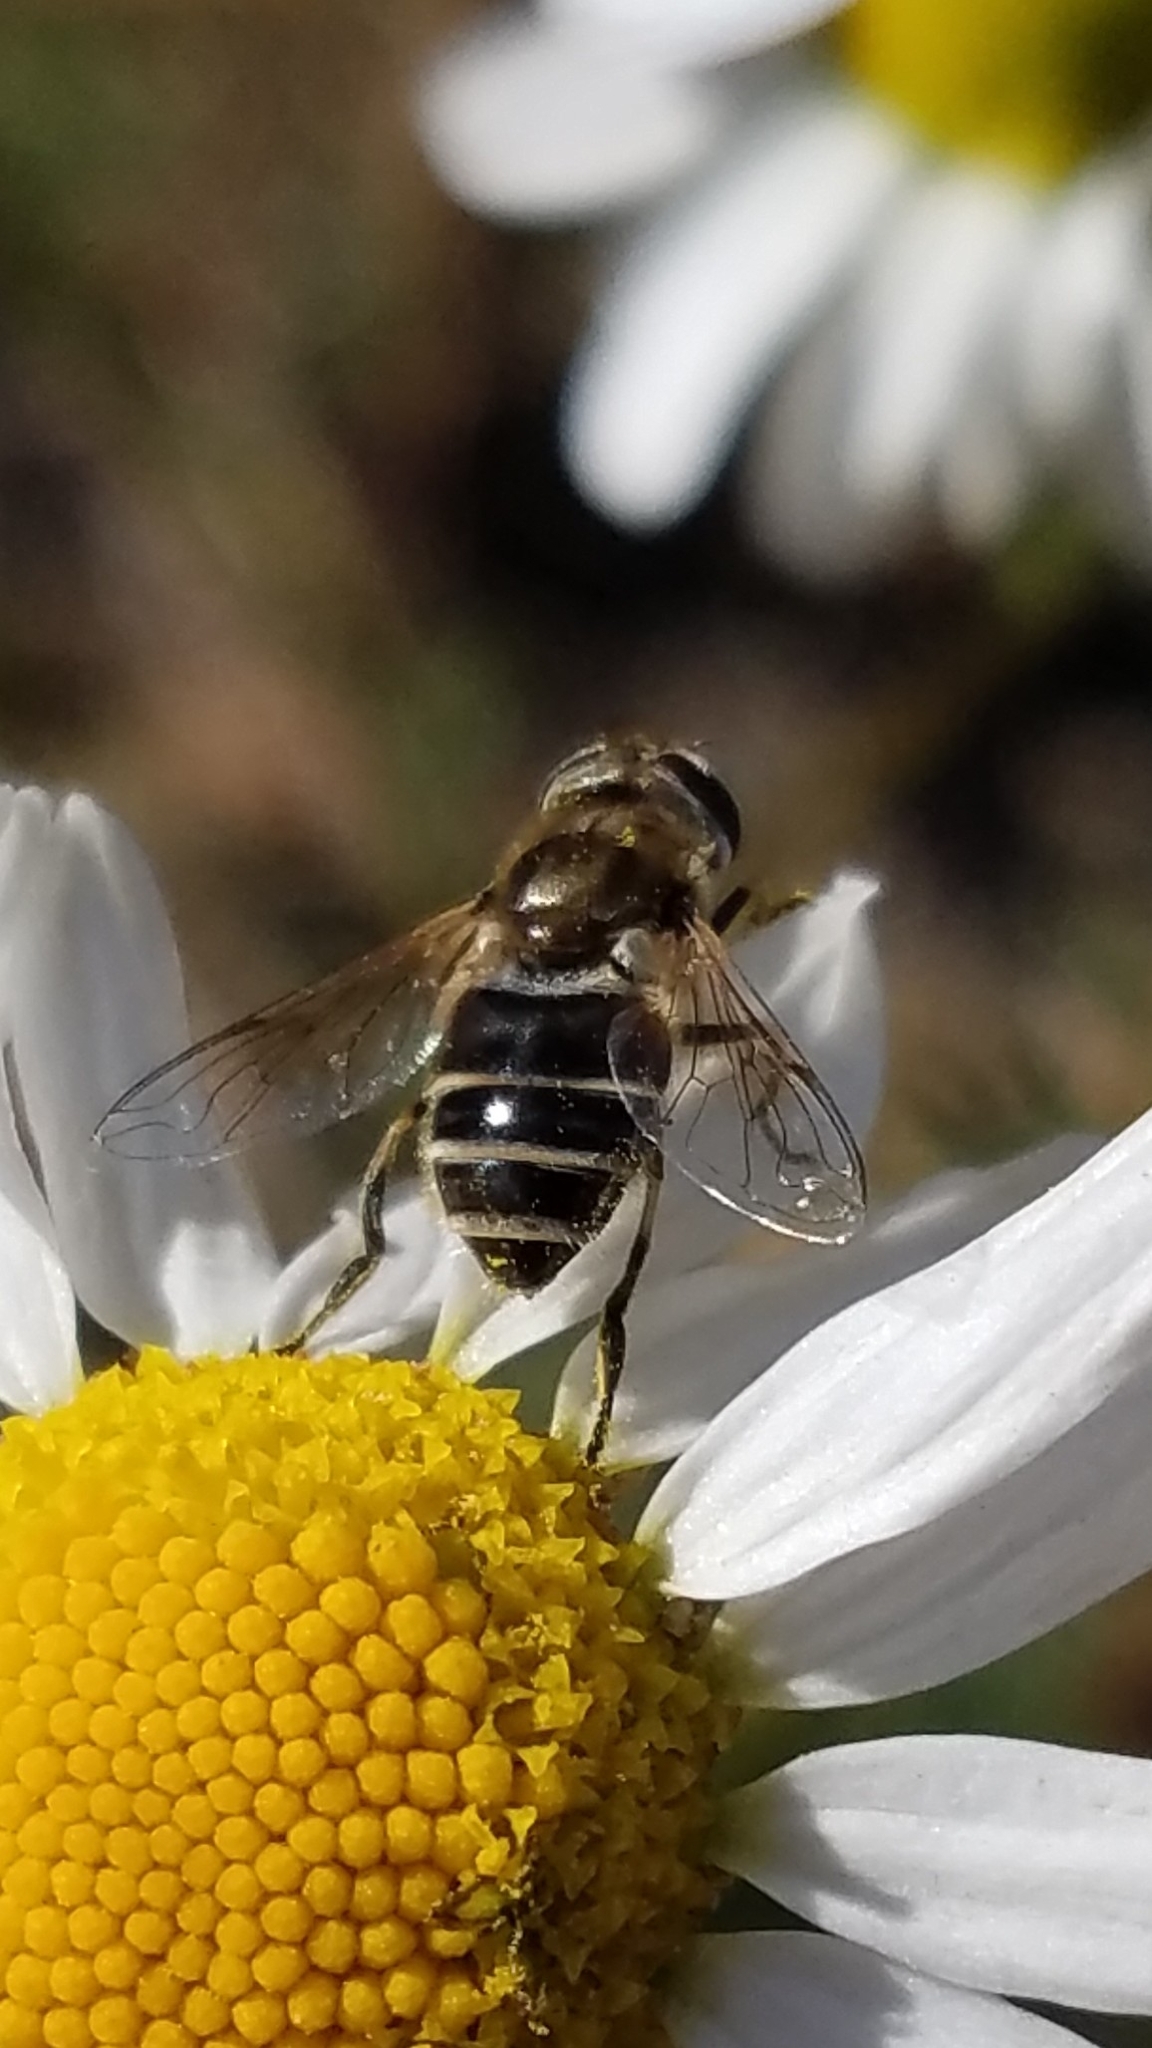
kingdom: Animalia
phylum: Arthropoda
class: Insecta
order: Diptera
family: Syrphidae
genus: Eristalis
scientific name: Eristalis arbustorum
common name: Hover fly
